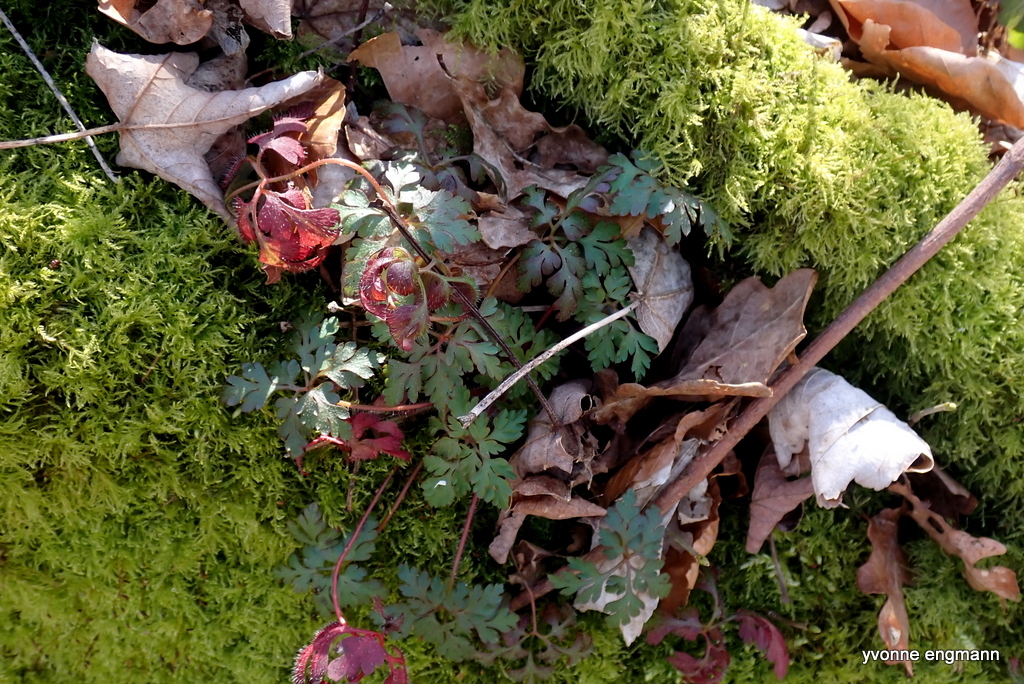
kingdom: Plantae
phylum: Tracheophyta
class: Magnoliopsida
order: Geraniales
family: Geraniaceae
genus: Geranium
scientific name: Geranium robertianum
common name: Herb-robert
